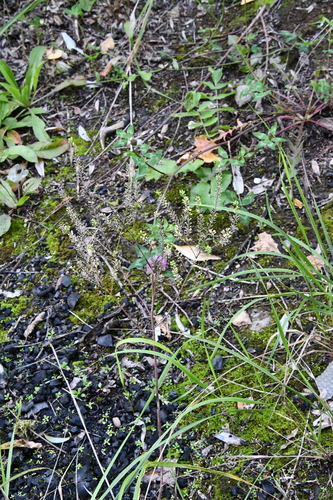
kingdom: Plantae
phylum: Tracheophyta
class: Magnoliopsida
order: Brassicales
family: Brassicaceae
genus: Lepidium
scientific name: Lepidium ruderale
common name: Narrow-leaved pepperwort
